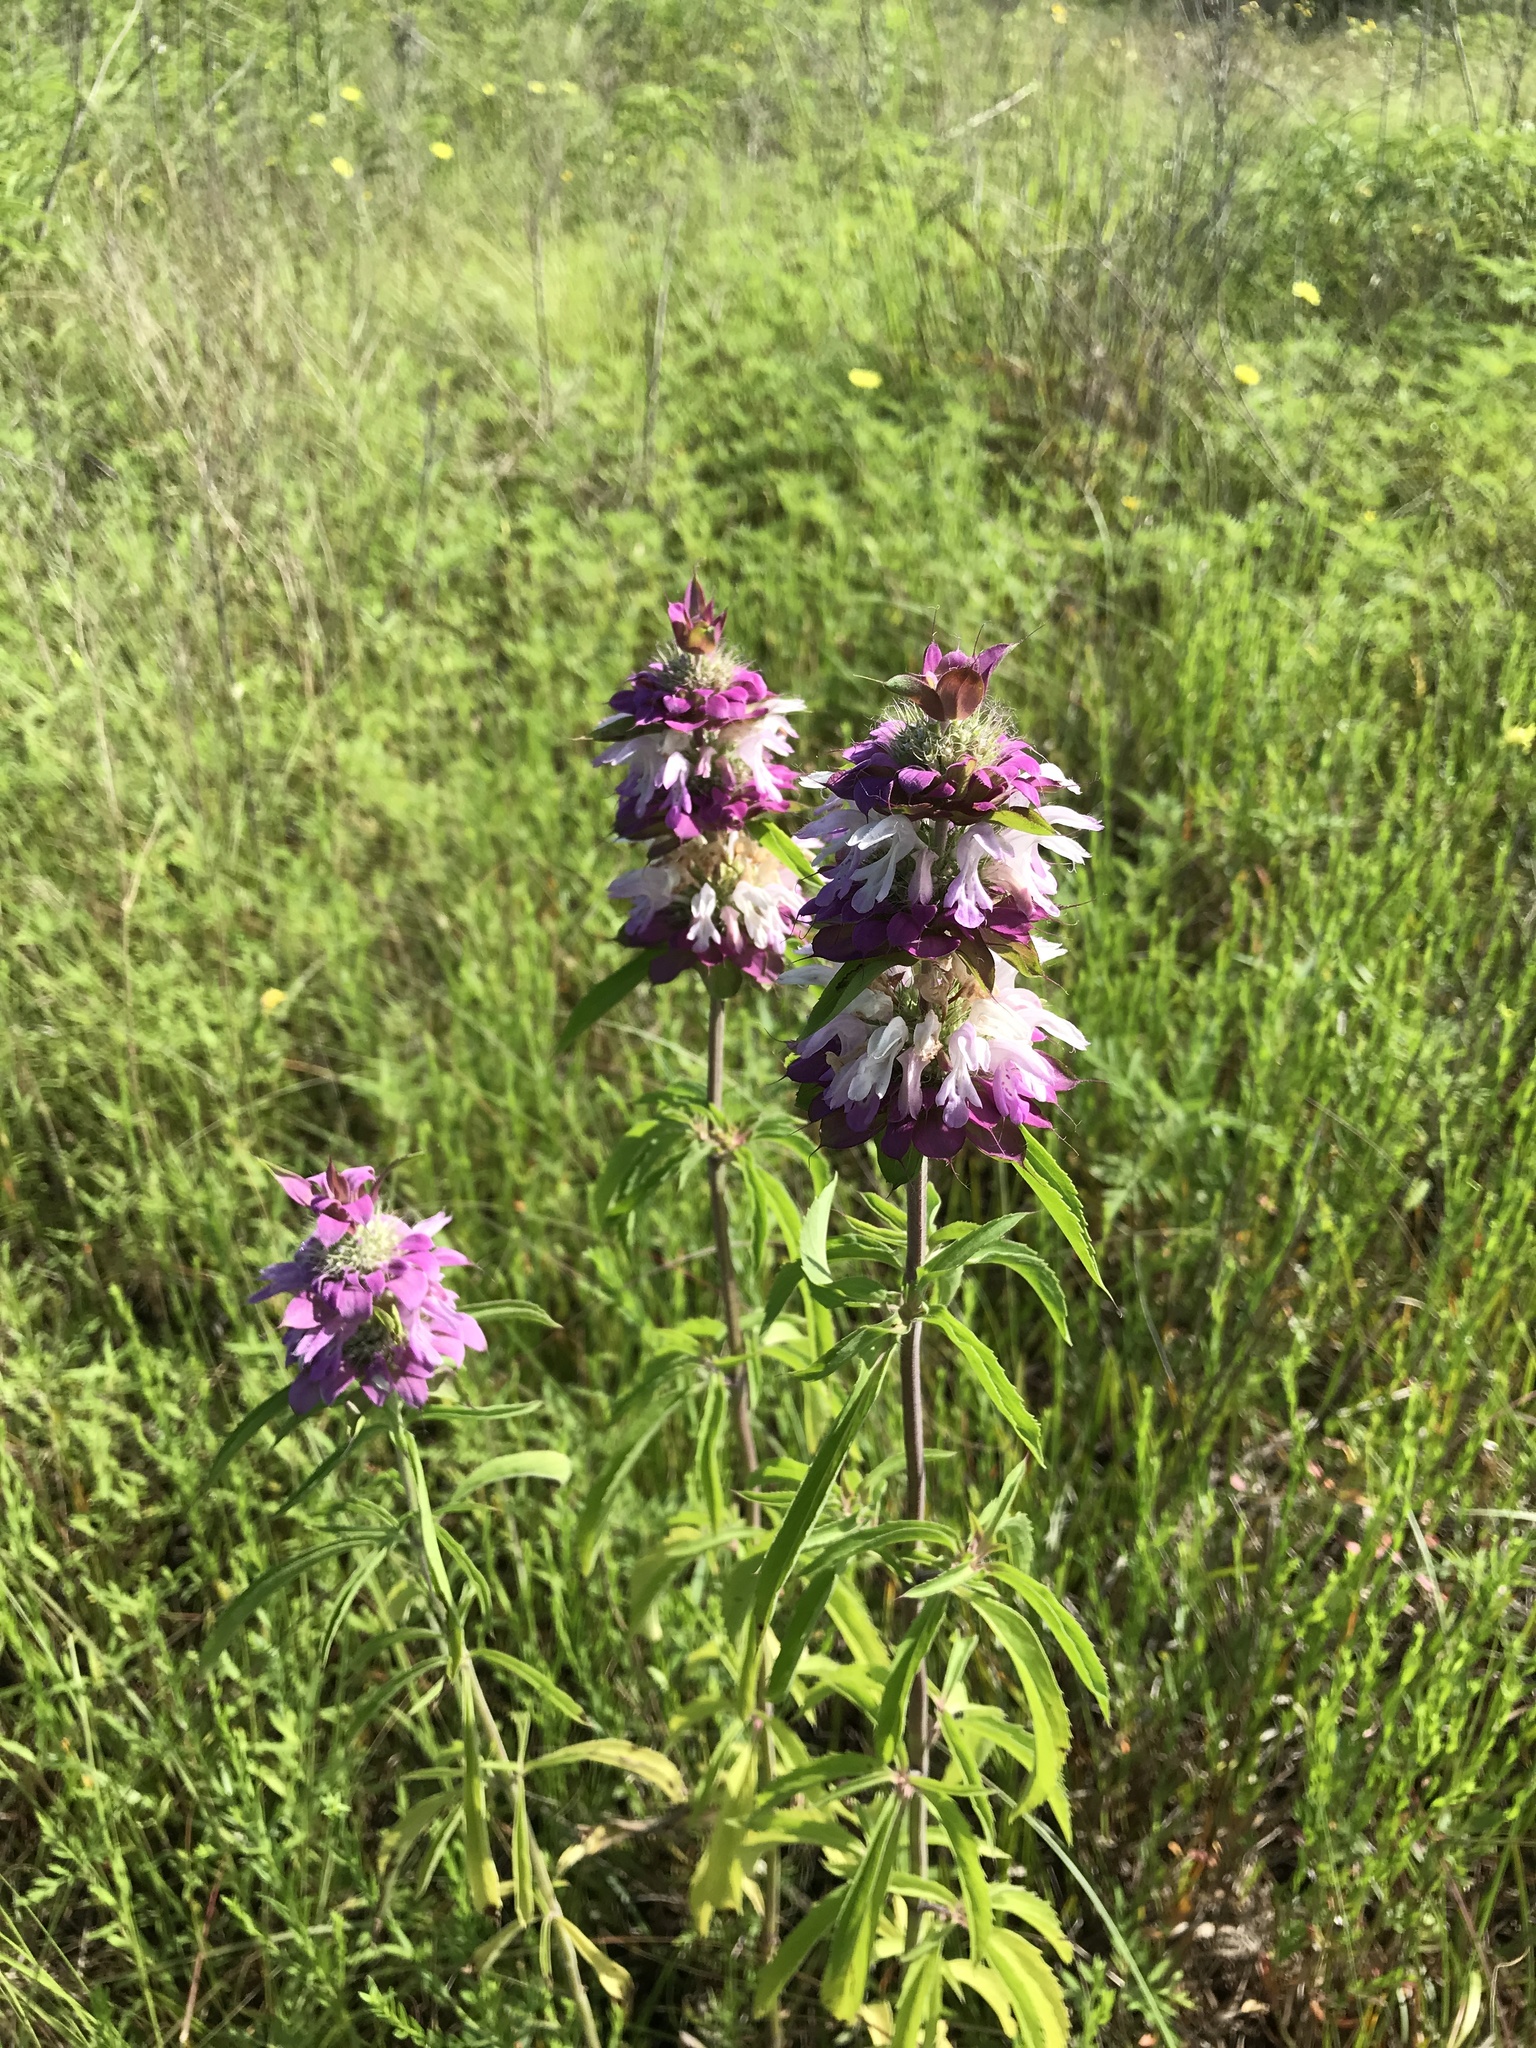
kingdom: Plantae
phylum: Tracheophyta
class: Magnoliopsida
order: Lamiales
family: Lamiaceae
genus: Monarda
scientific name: Monarda citriodora
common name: Lemon beebalm
